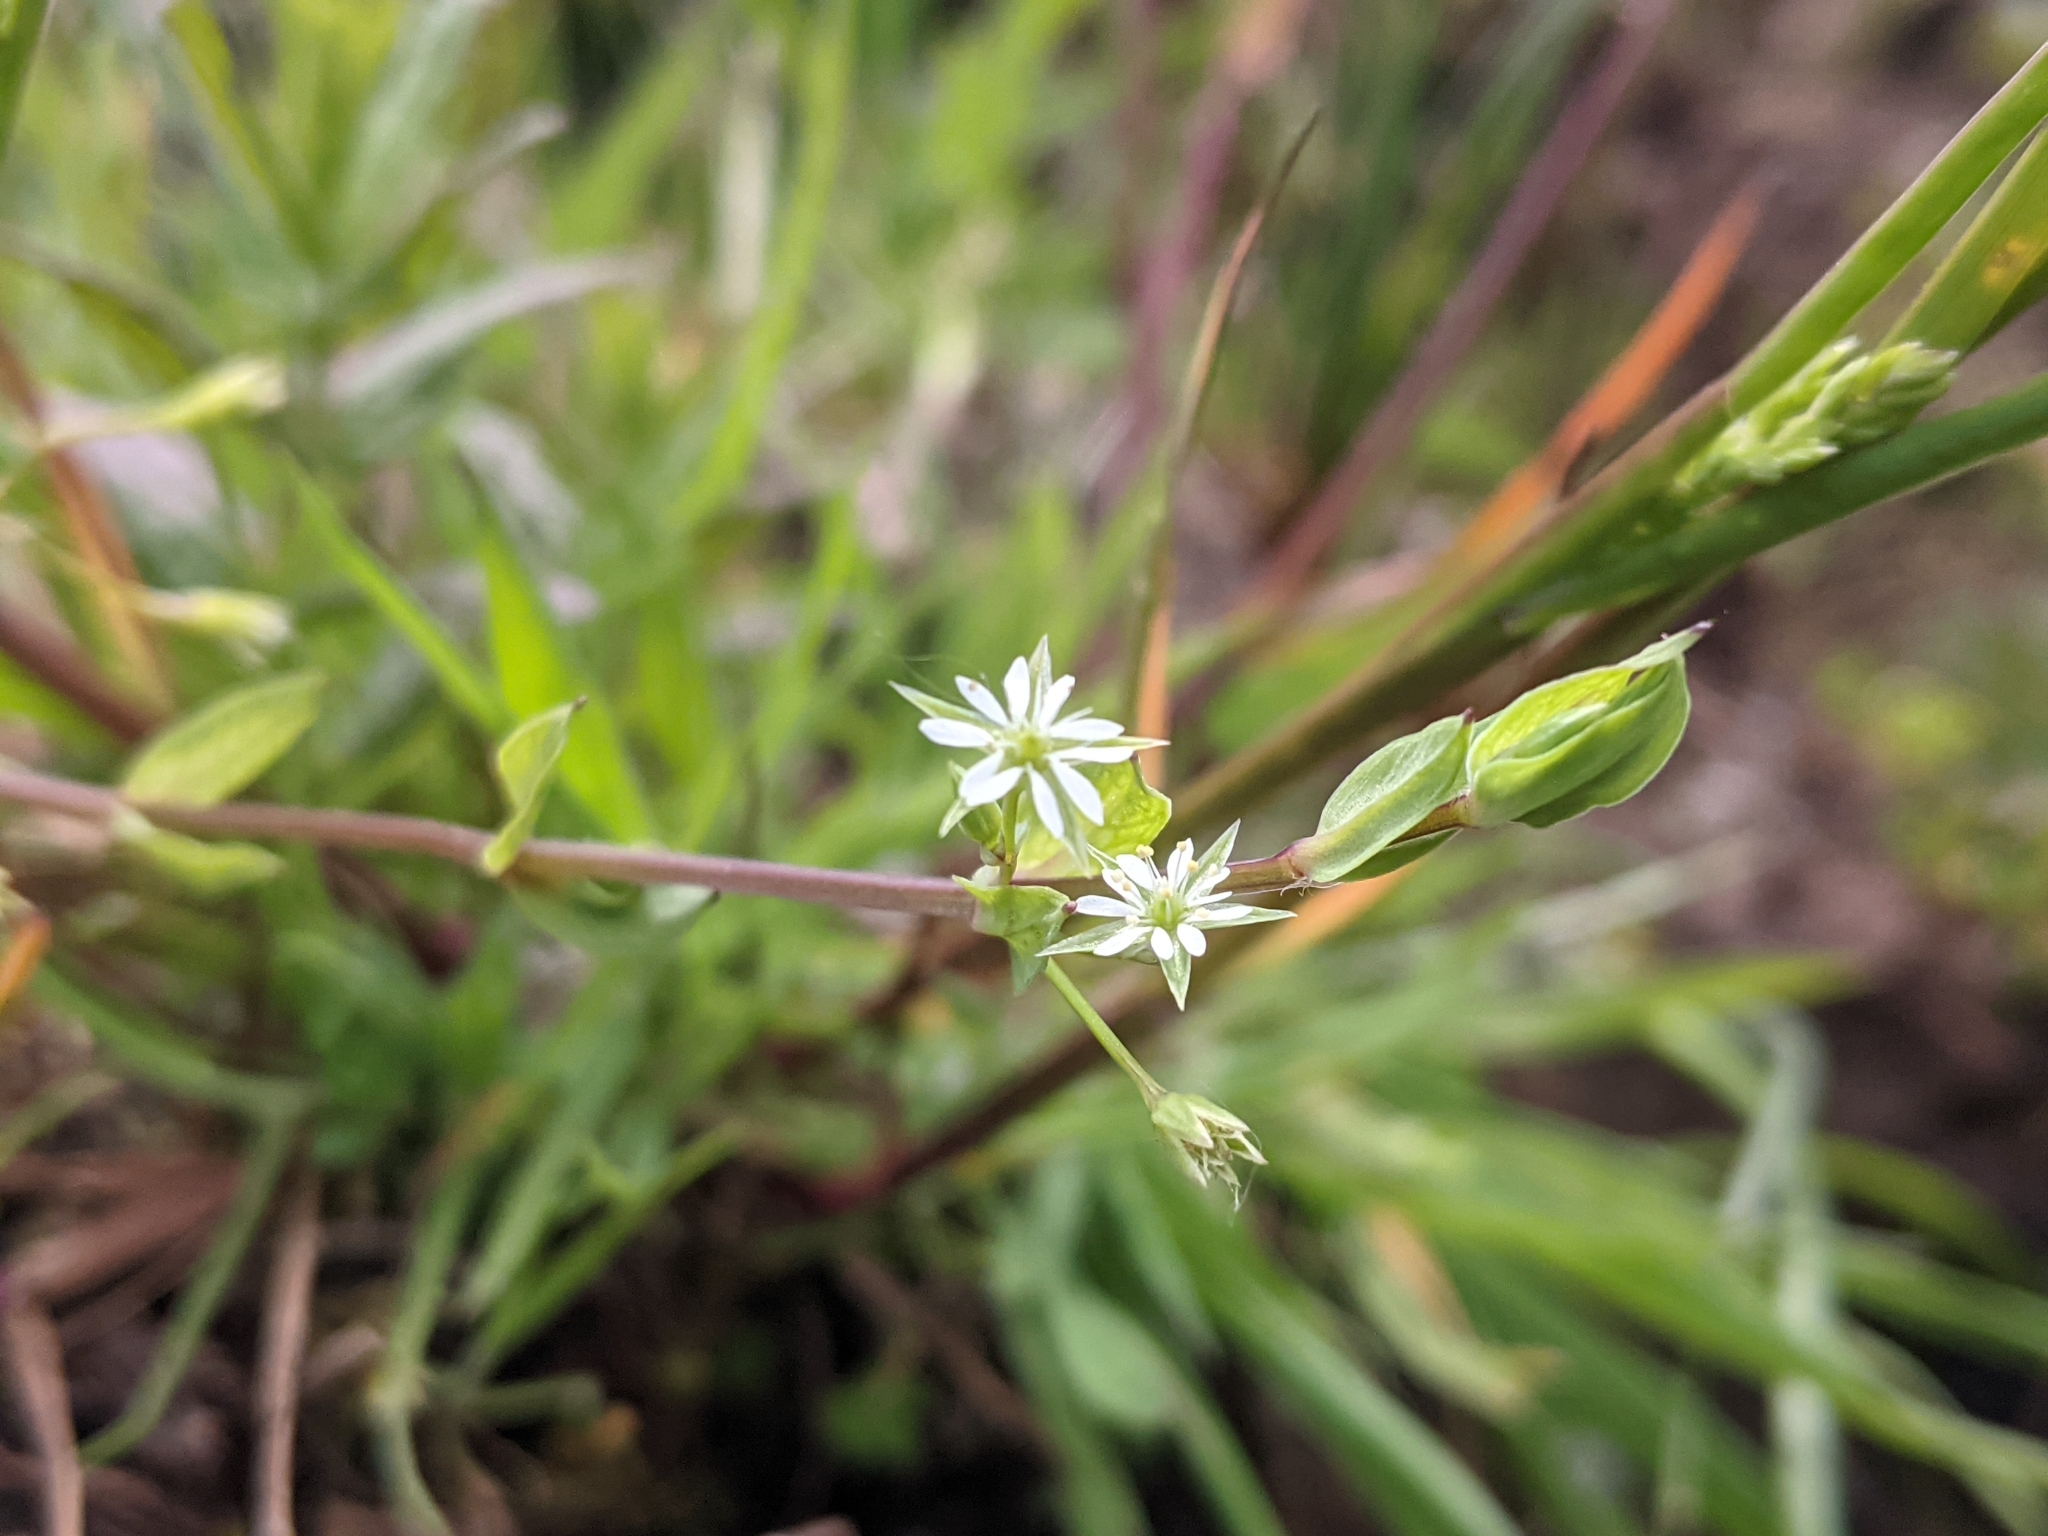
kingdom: Plantae
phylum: Tracheophyta
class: Magnoliopsida
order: Caryophyllales
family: Caryophyllaceae
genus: Stellaria
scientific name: Stellaria alsine
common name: Bog stitchwort
